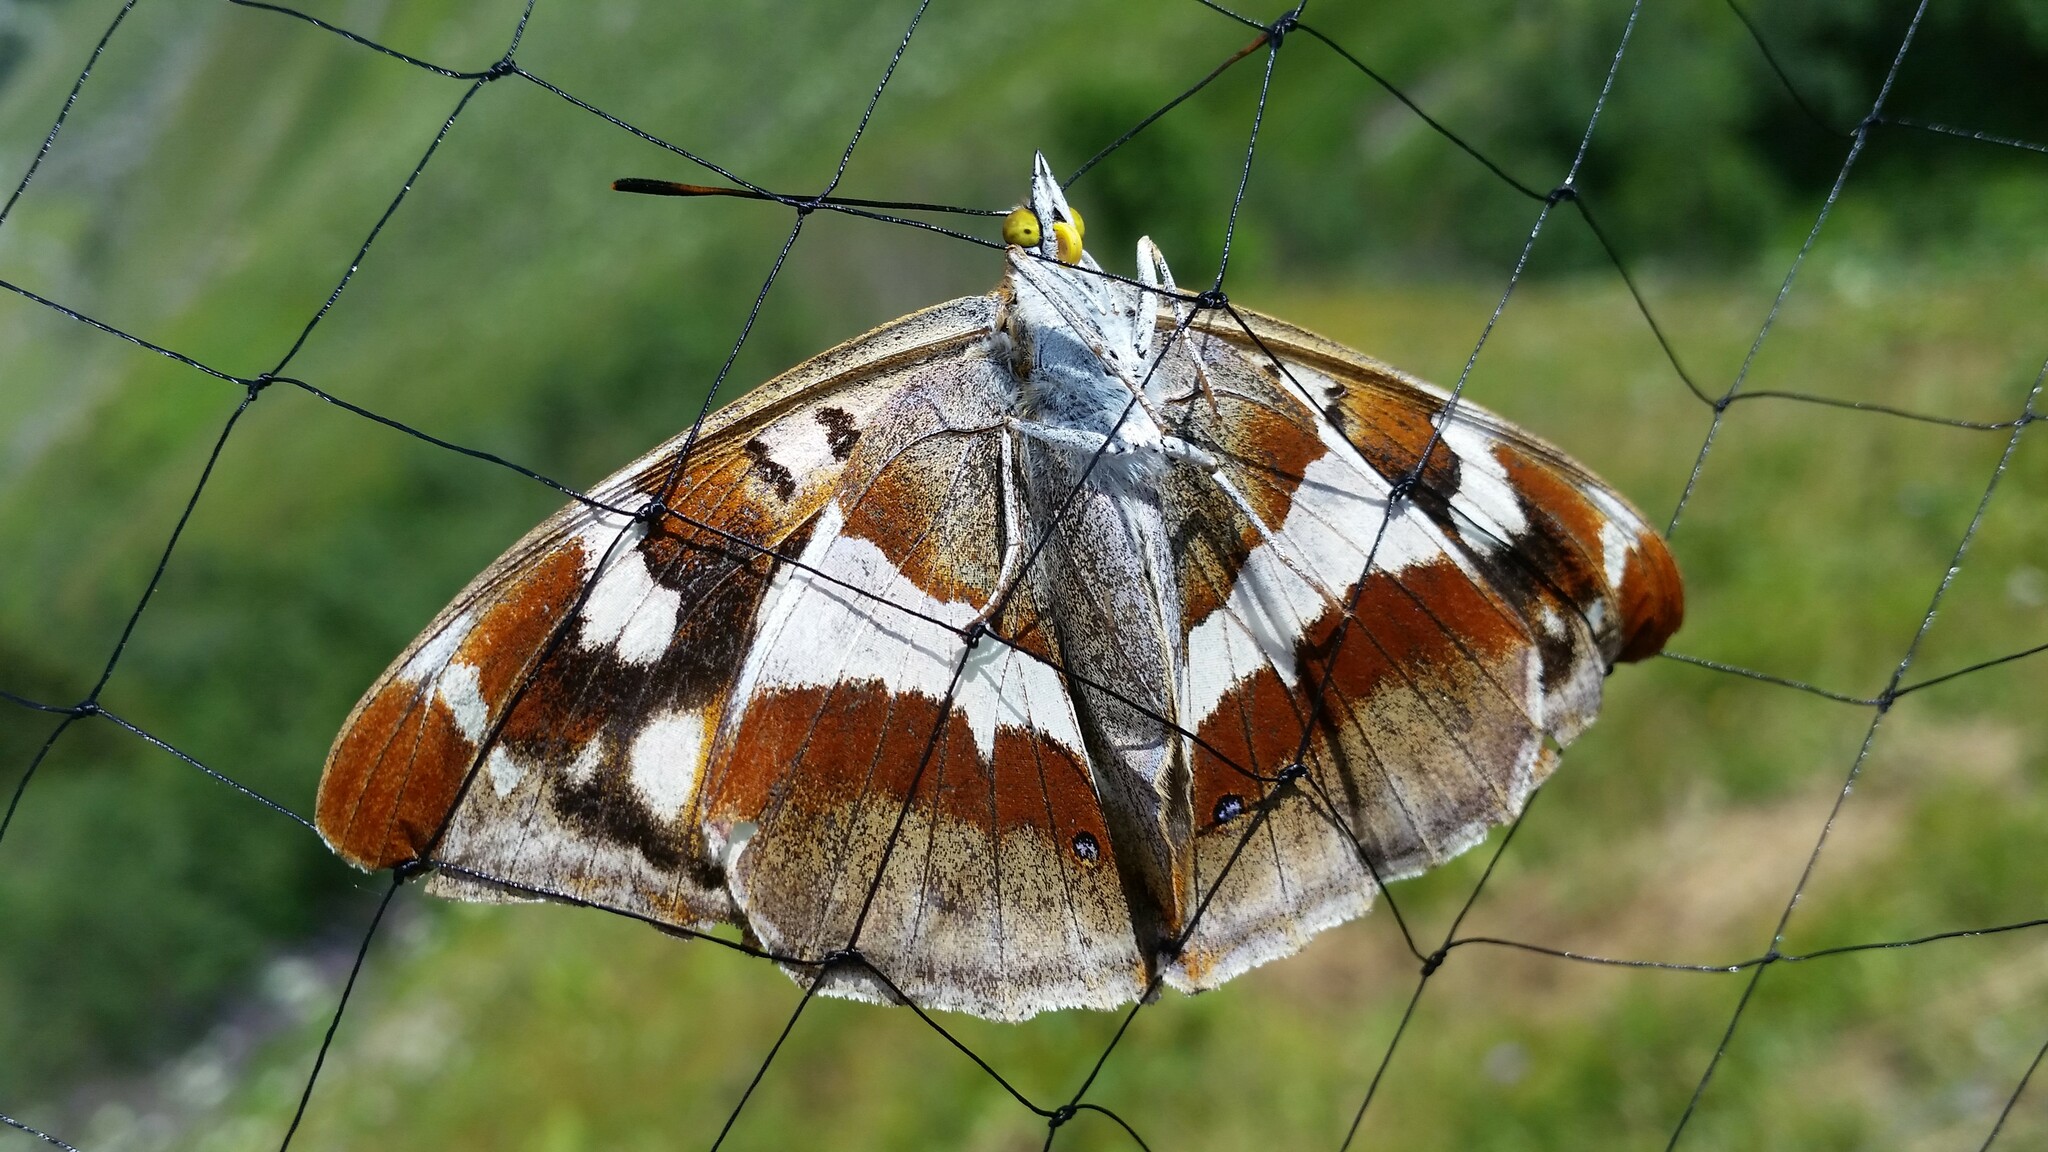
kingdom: Animalia
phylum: Arthropoda
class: Insecta
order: Lepidoptera
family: Nymphalidae
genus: Apatura
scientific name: Apatura iris
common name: Purple emperor
